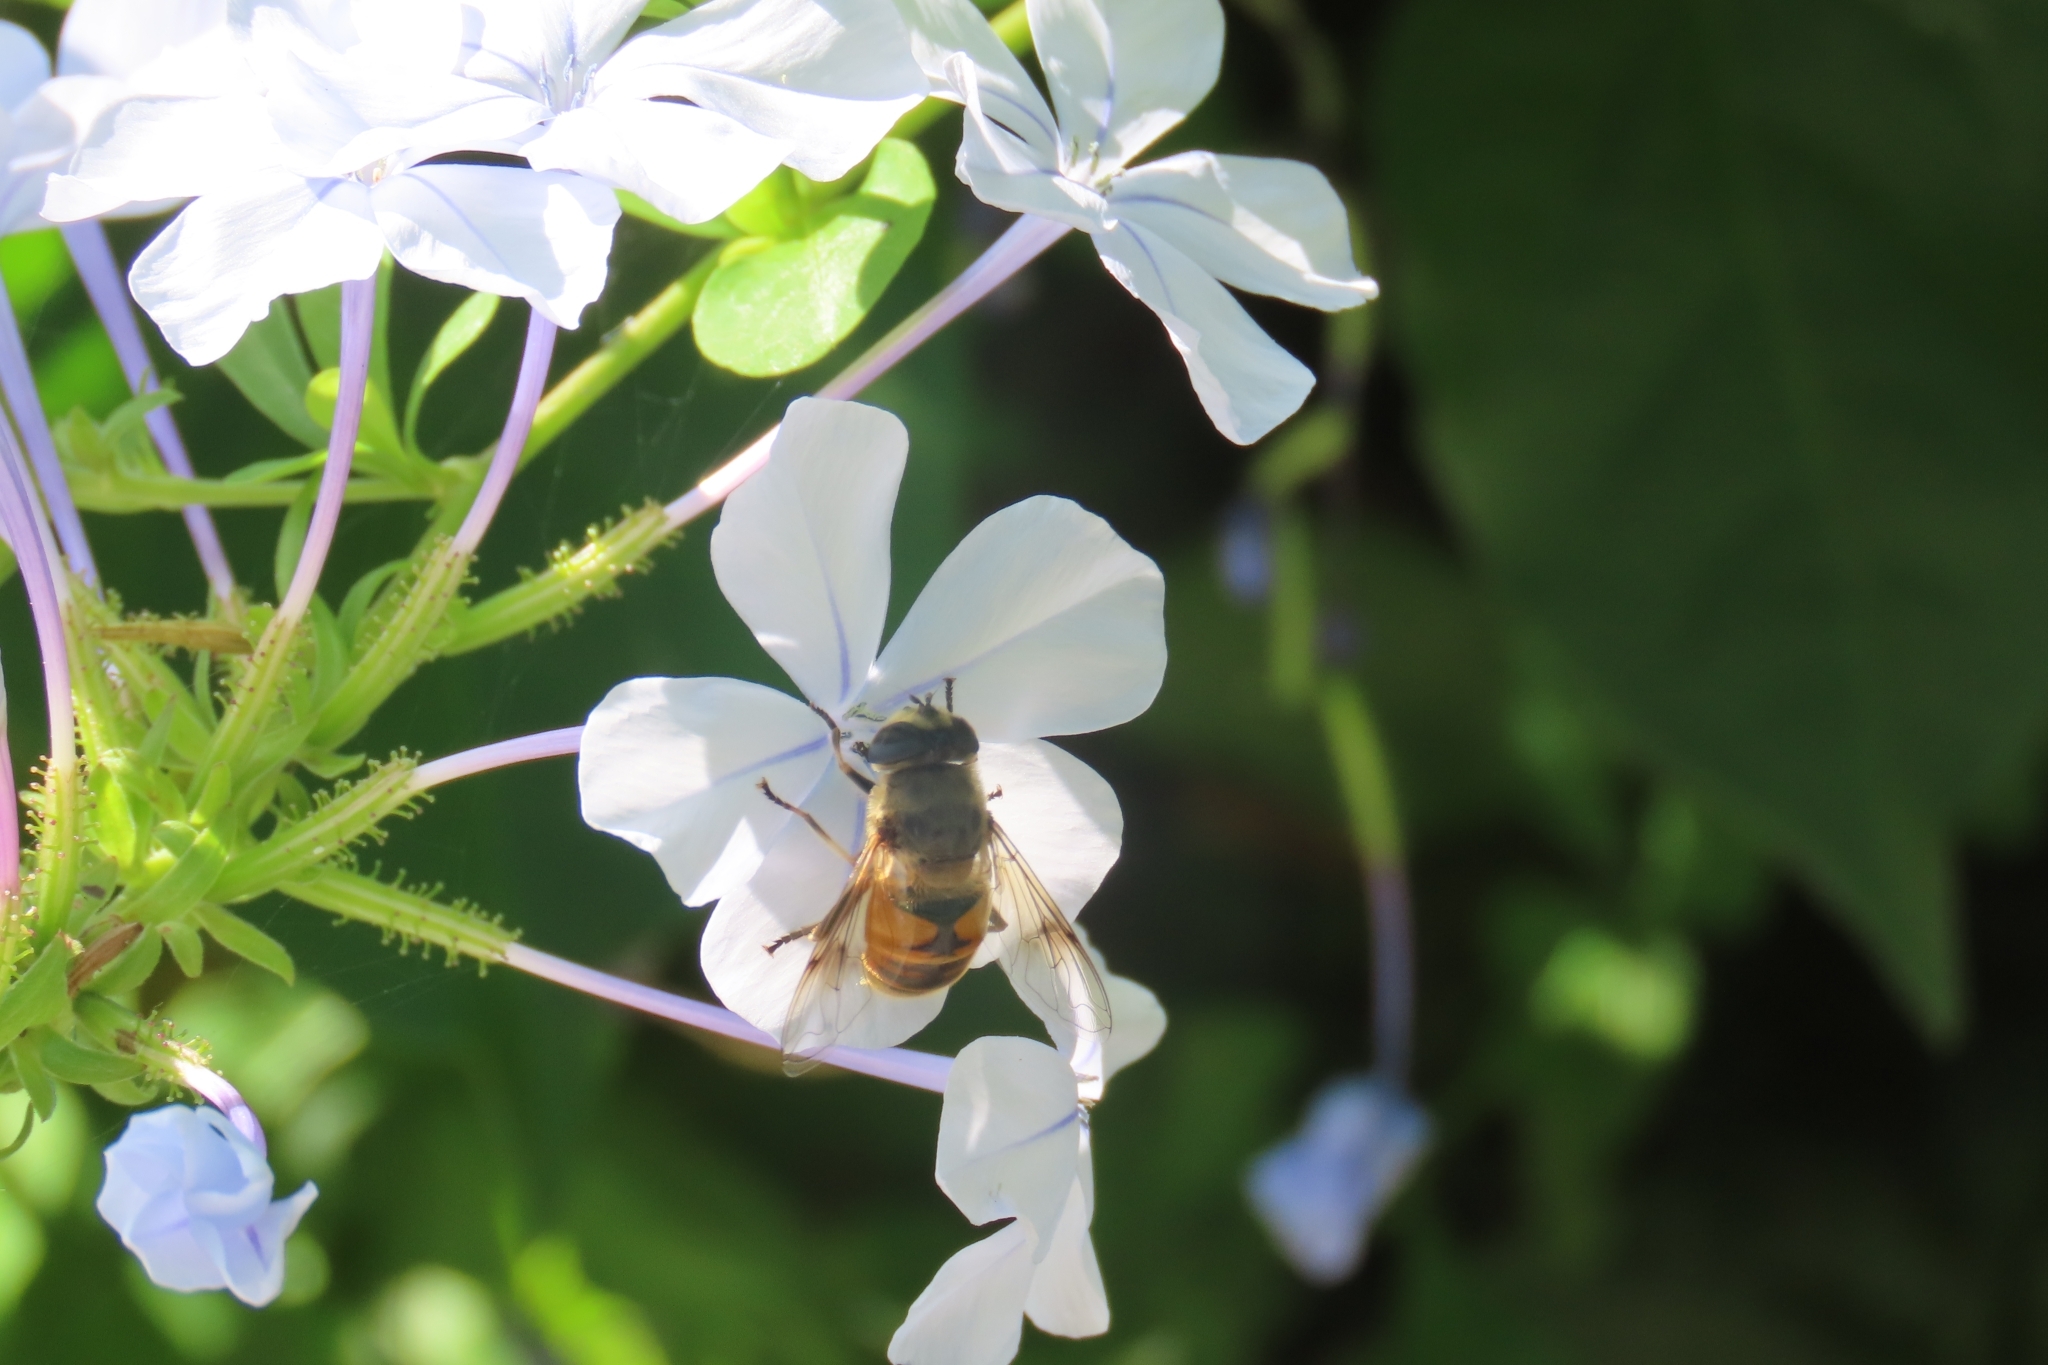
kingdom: Animalia
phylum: Arthropoda
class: Insecta
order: Diptera
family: Syrphidae
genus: Eristalis
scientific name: Eristalis tenax
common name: Drone fly
